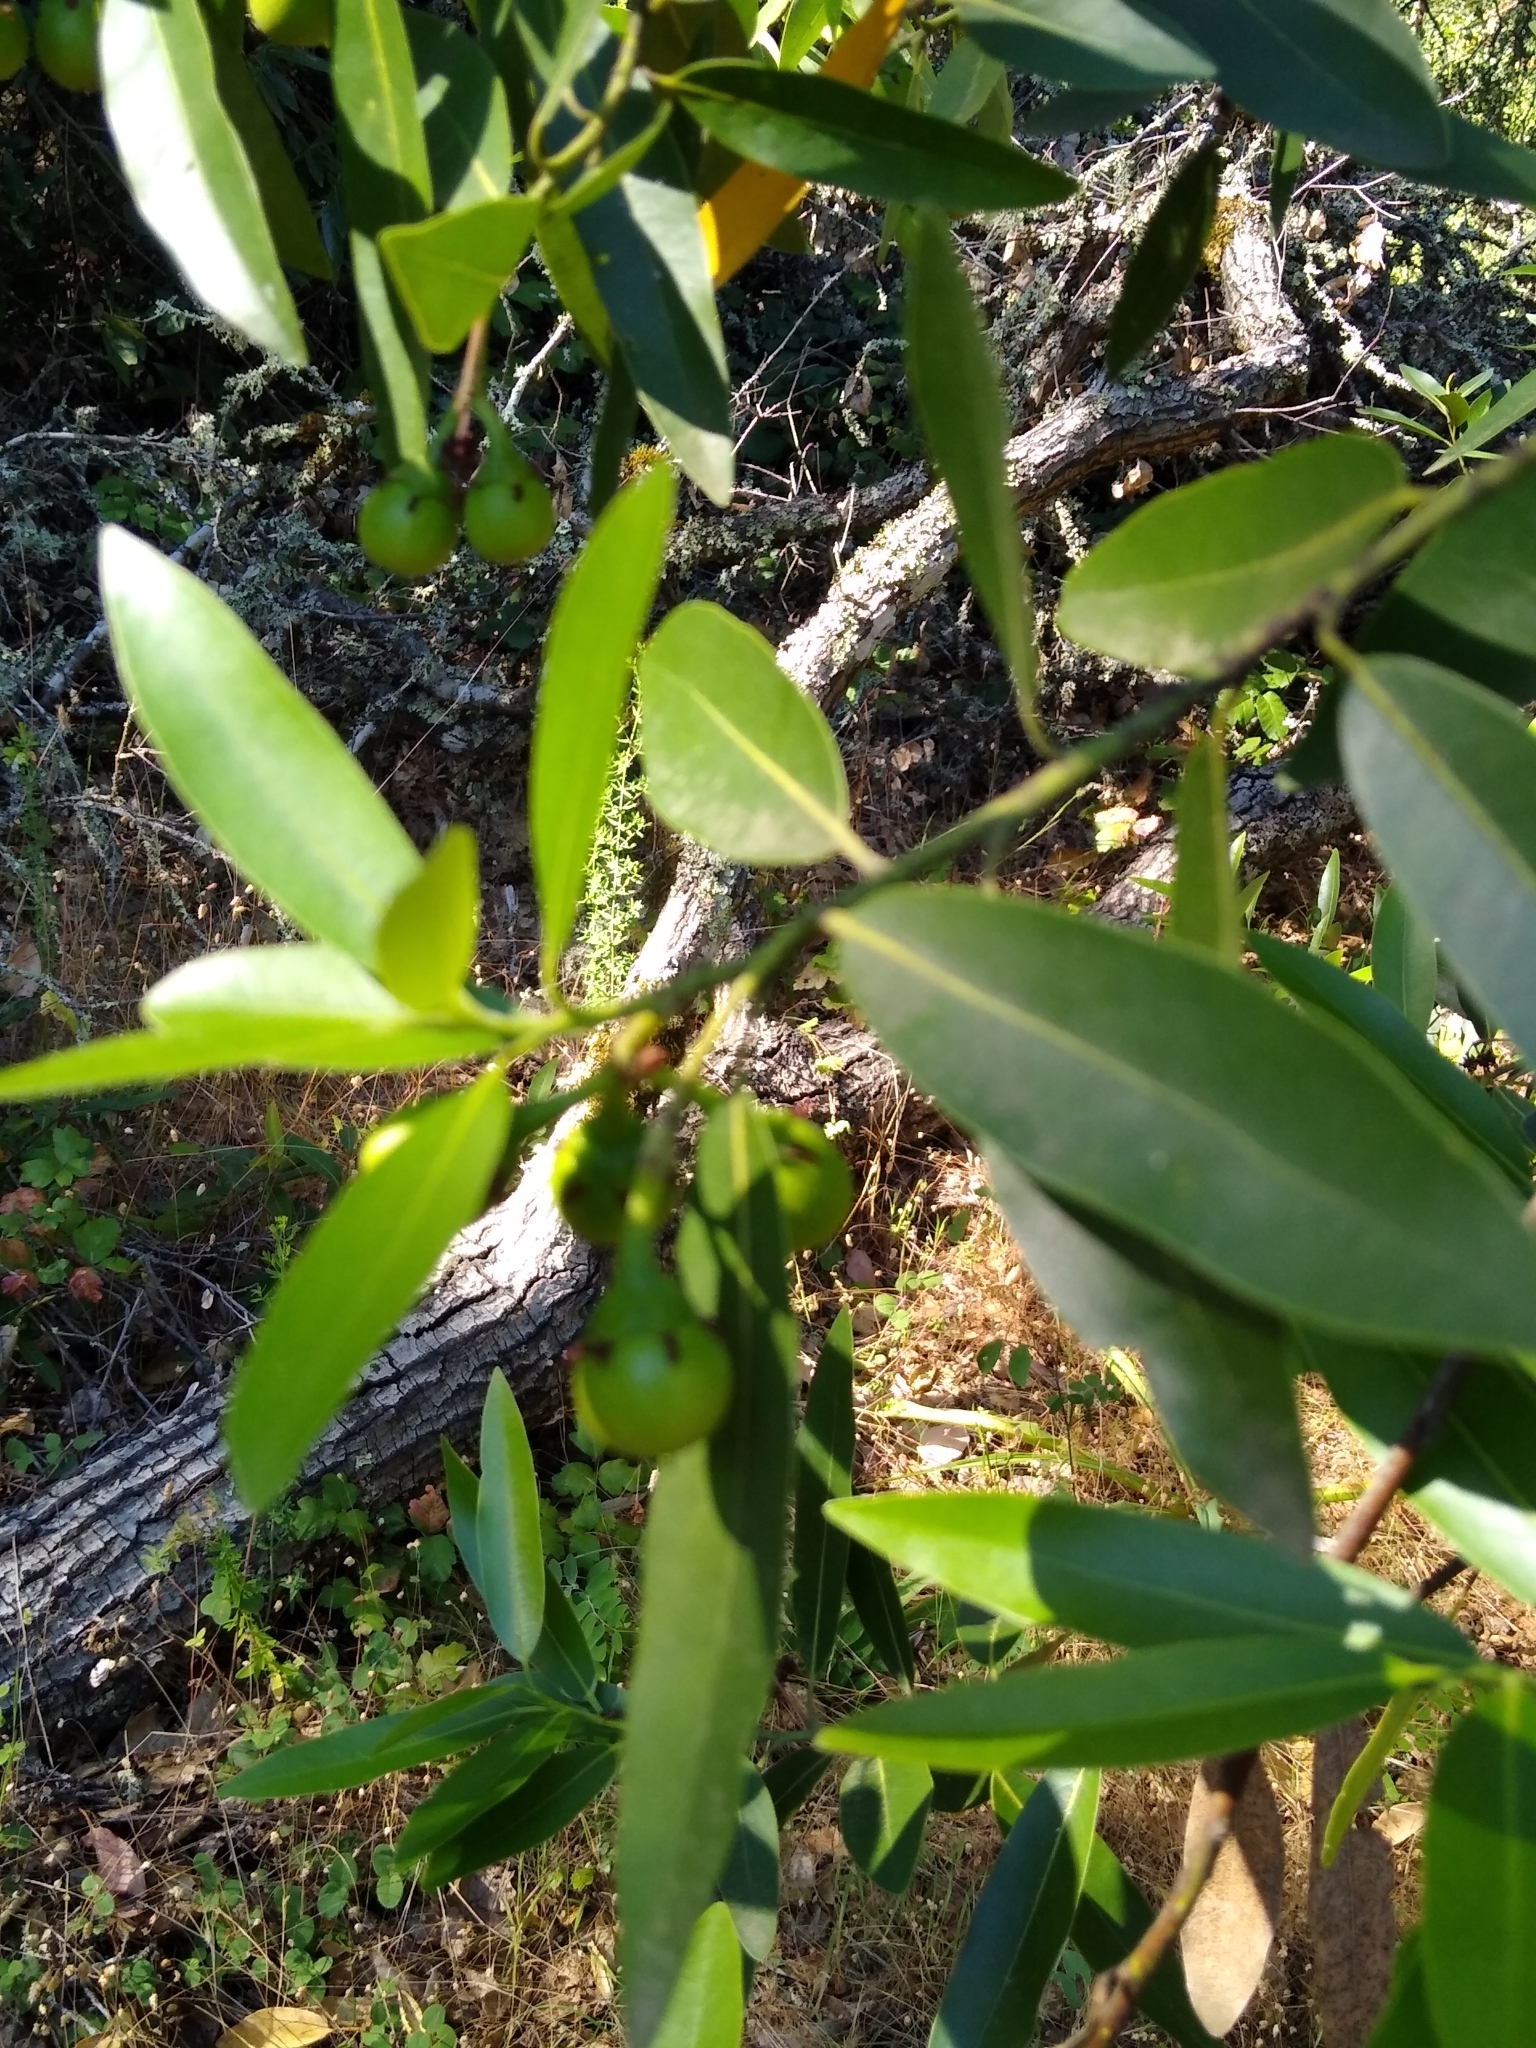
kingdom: Plantae
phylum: Tracheophyta
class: Magnoliopsida
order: Laurales
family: Lauraceae
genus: Umbellularia
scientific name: Umbellularia californica
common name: California bay
